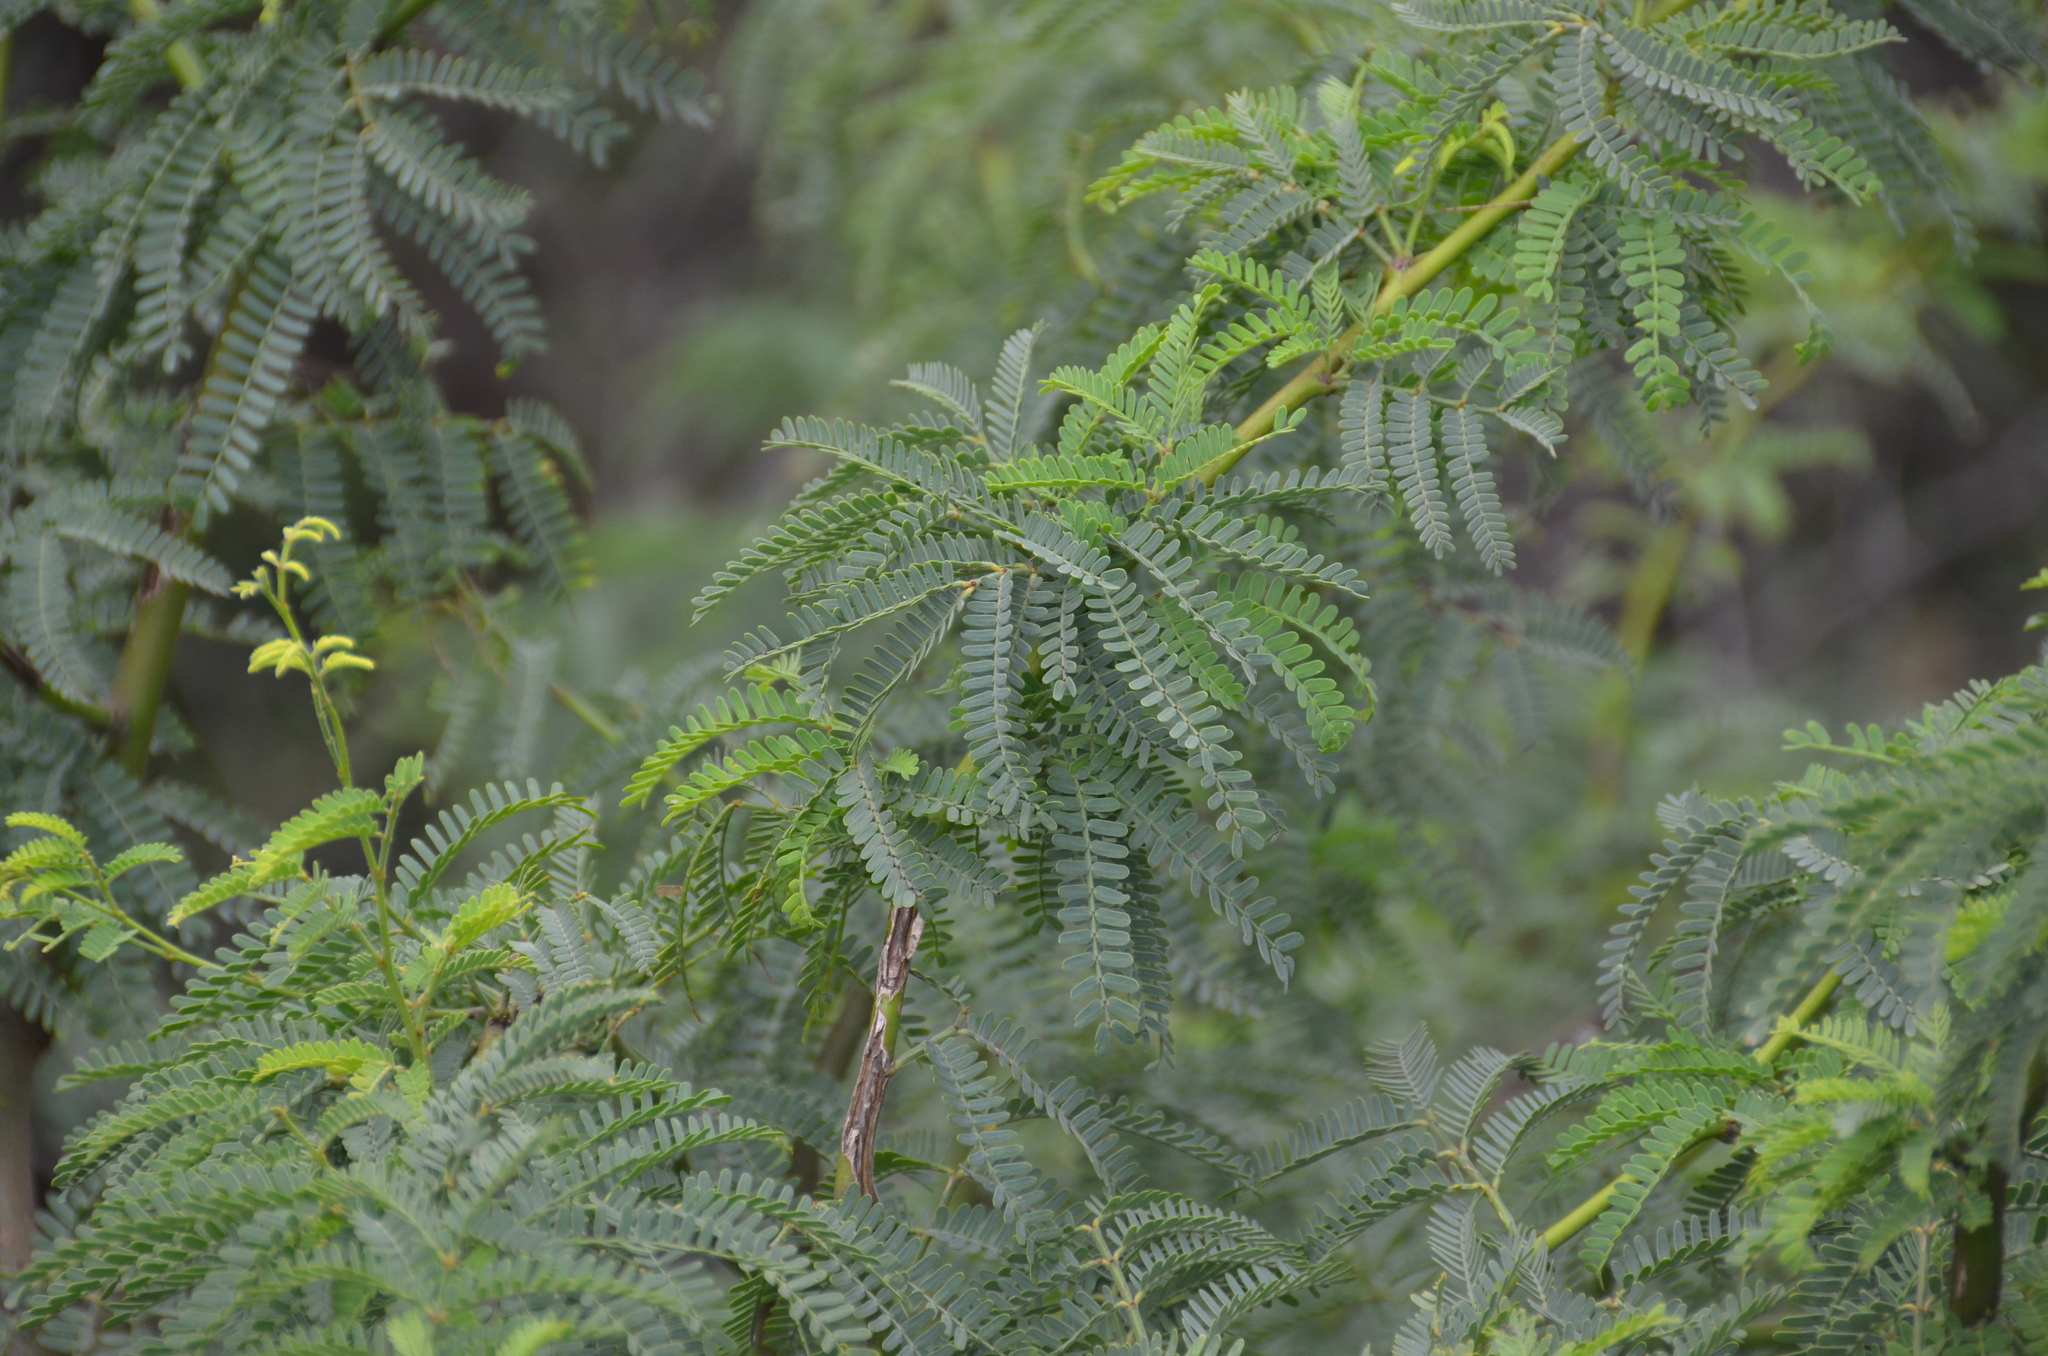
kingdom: Plantae
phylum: Tracheophyta
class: Magnoliopsida
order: Fabales
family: Fabaceae
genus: Prosopis
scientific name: Prosopis pallida
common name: Mesquite
